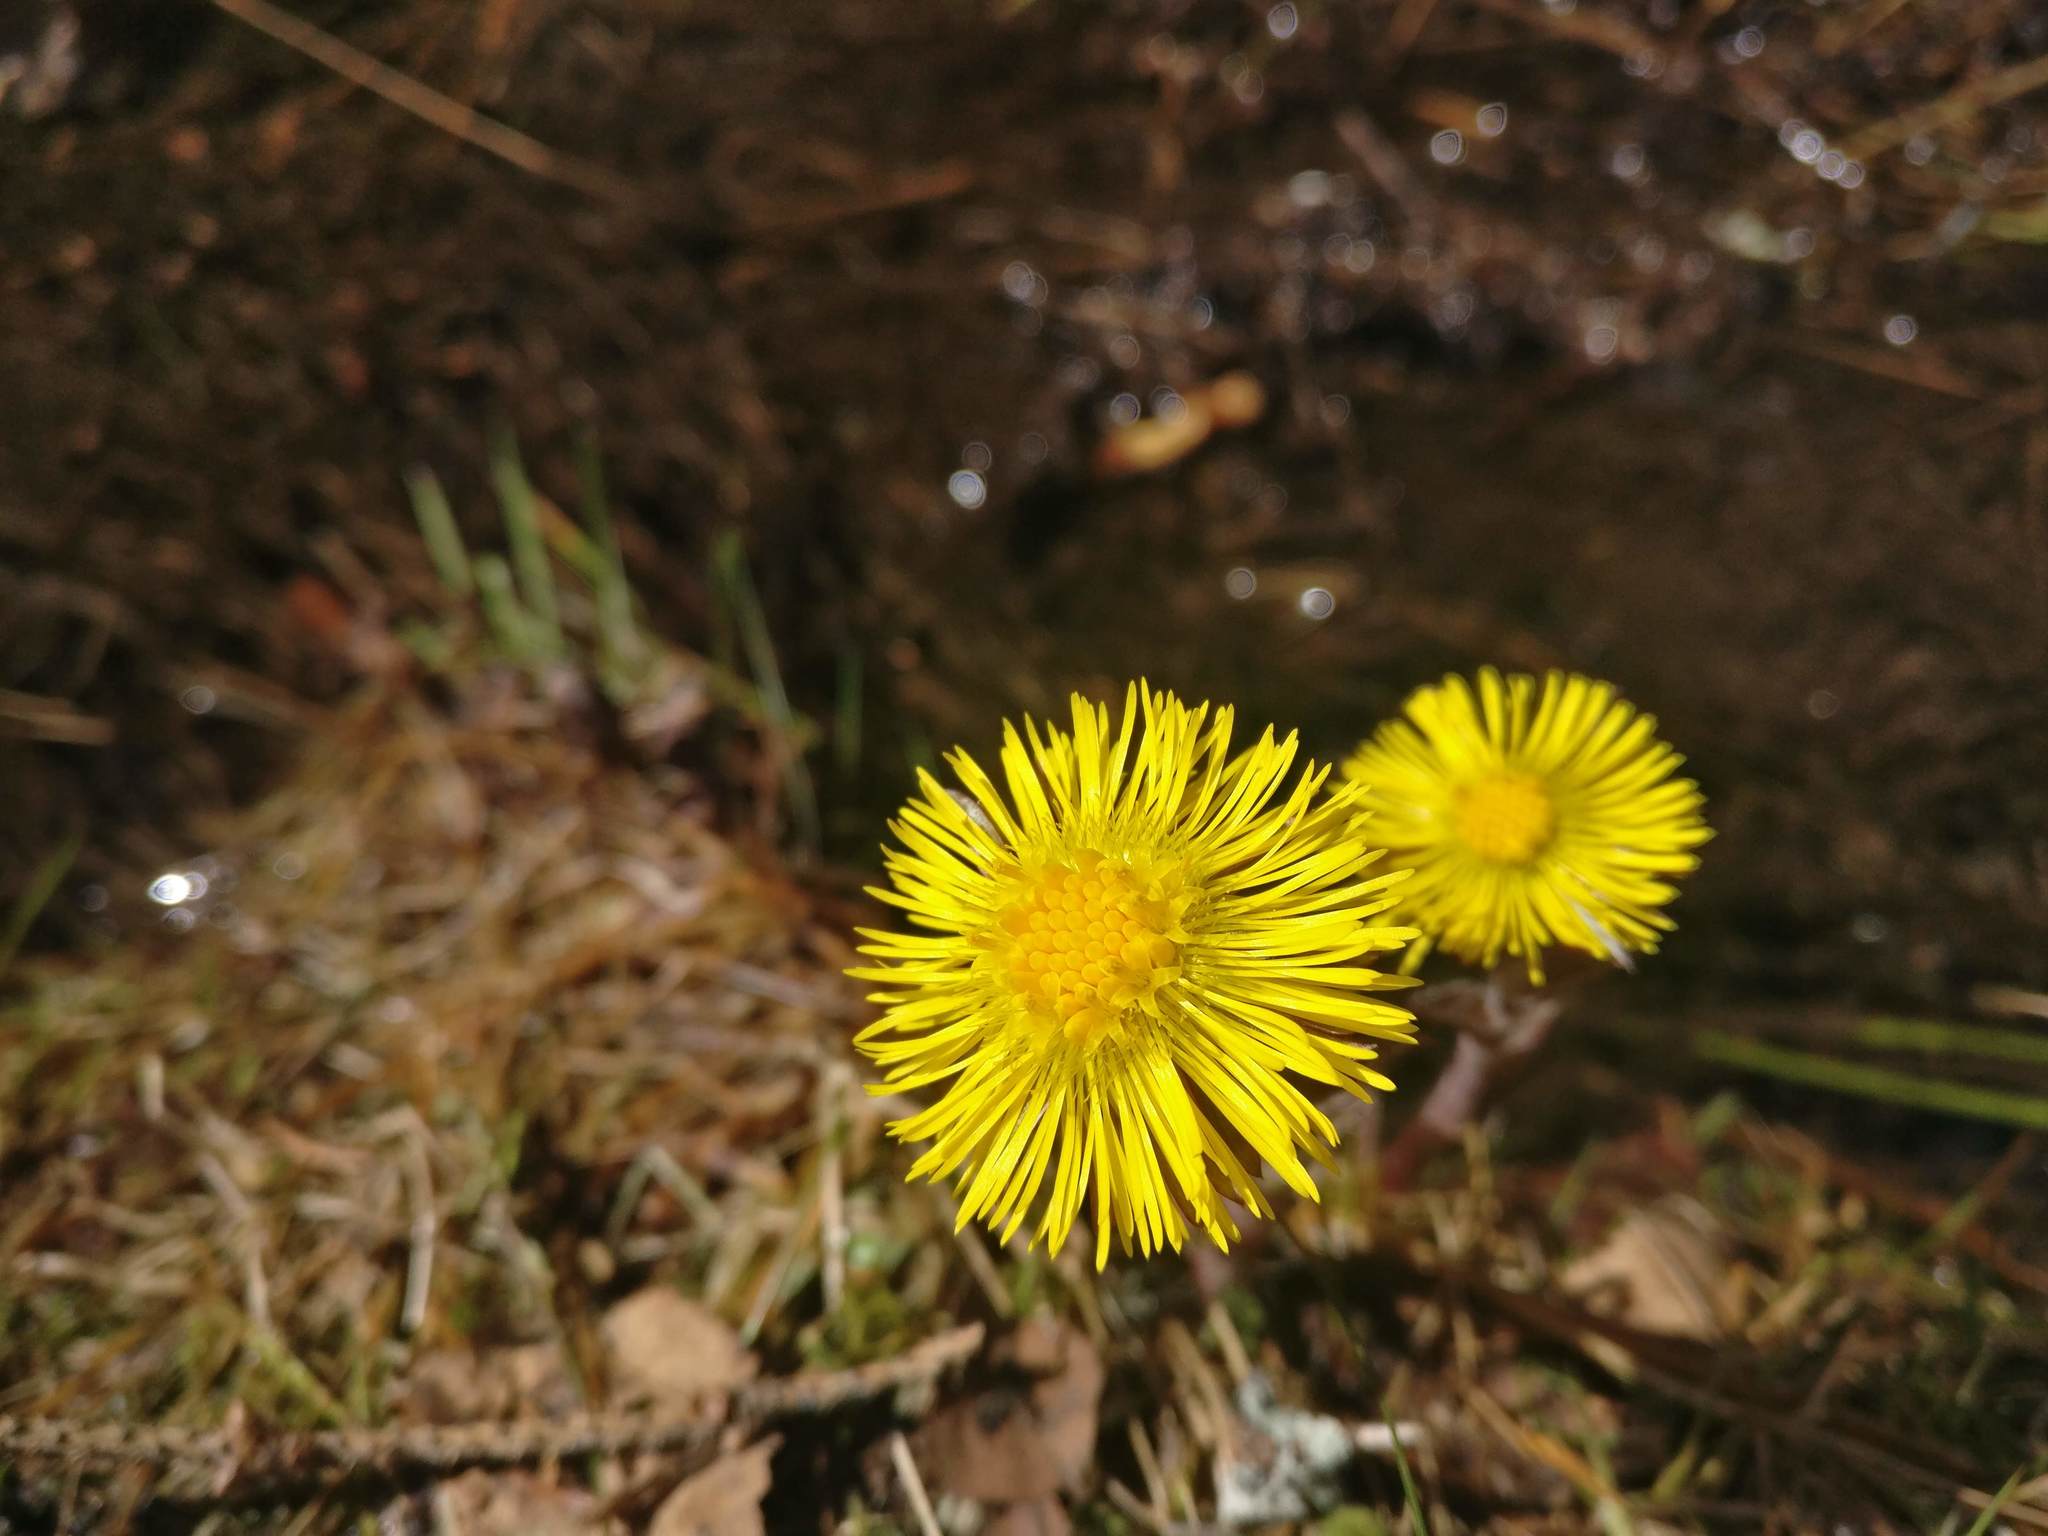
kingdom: Plantae
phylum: Tracheophyta
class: Magnoliopsida
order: Asterales
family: Asteraceae
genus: Tussilago
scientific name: Tussilago farfara
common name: Coltsfoot
